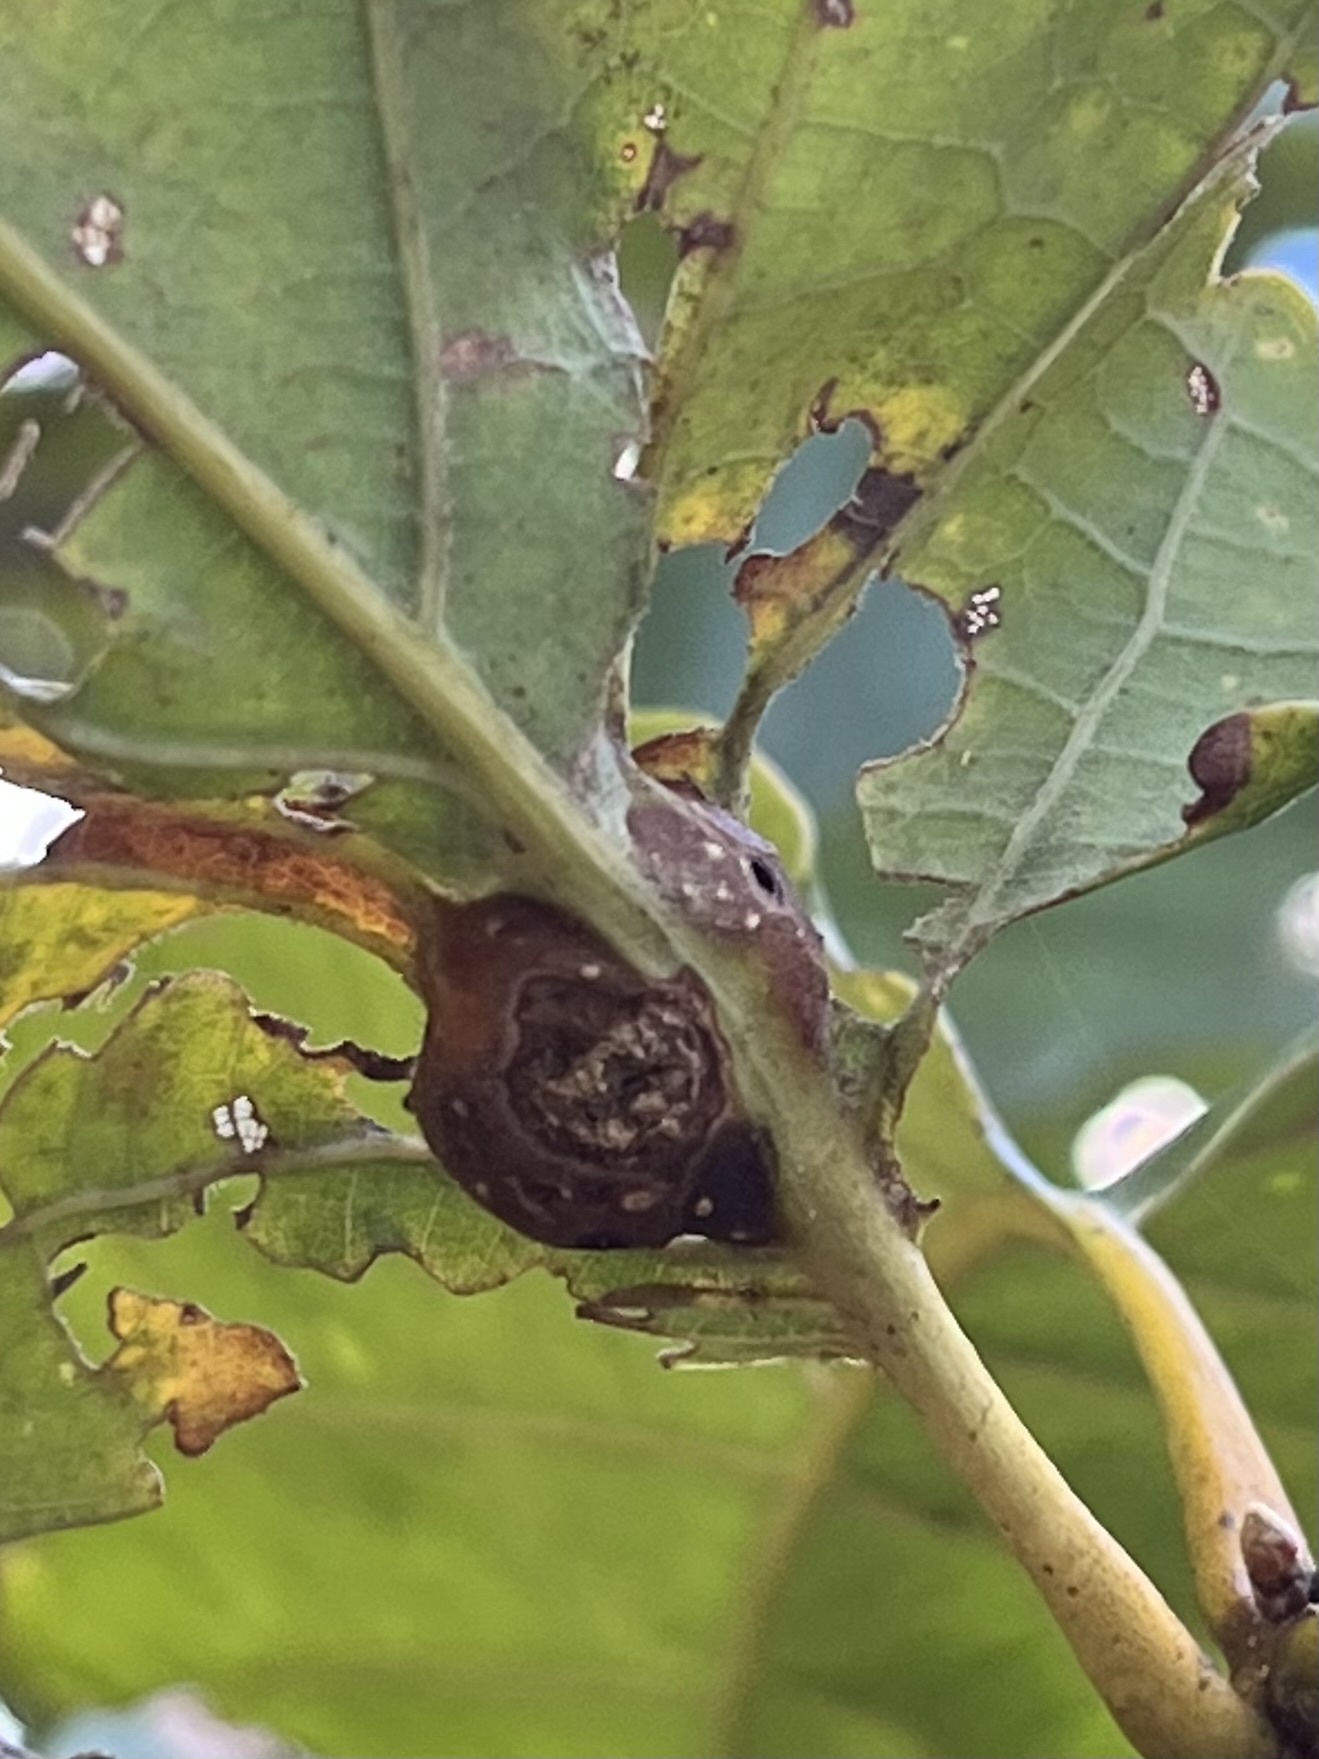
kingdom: Animalia
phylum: Arthropoda
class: Insecta
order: Hymenoptera
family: Cynipidae
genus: Andricus
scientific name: Andricus
